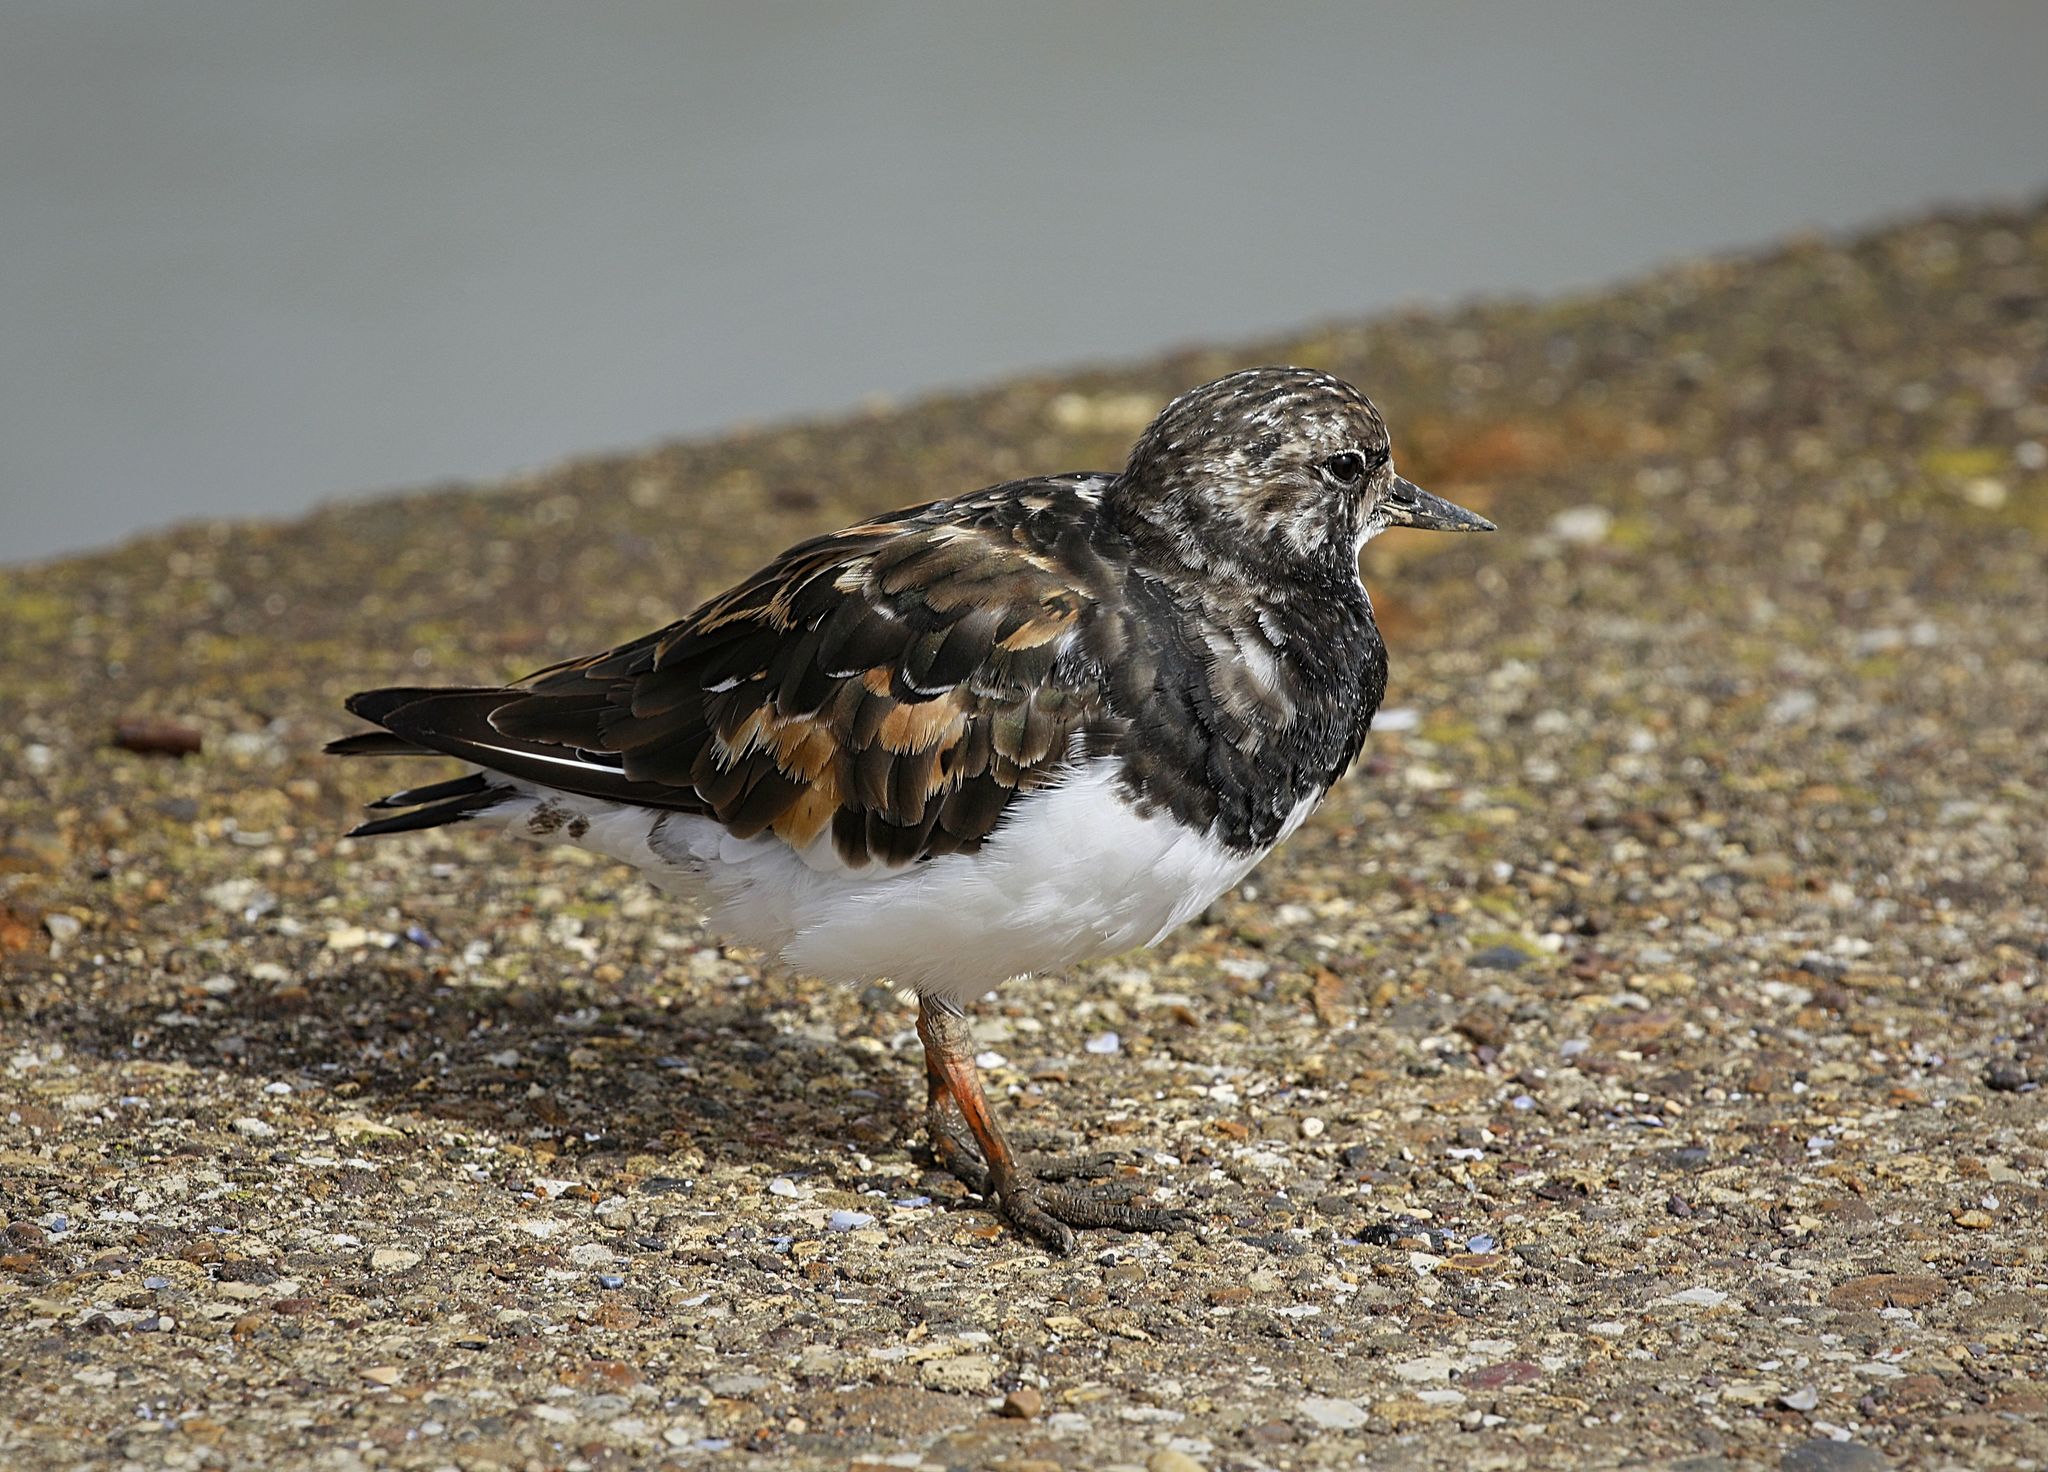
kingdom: Animalia
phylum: Chordata
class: Aves
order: Charadriiformes
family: Scolopacidae
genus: Arenaria
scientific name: Arenaria interpres
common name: Ruddy turnstone
